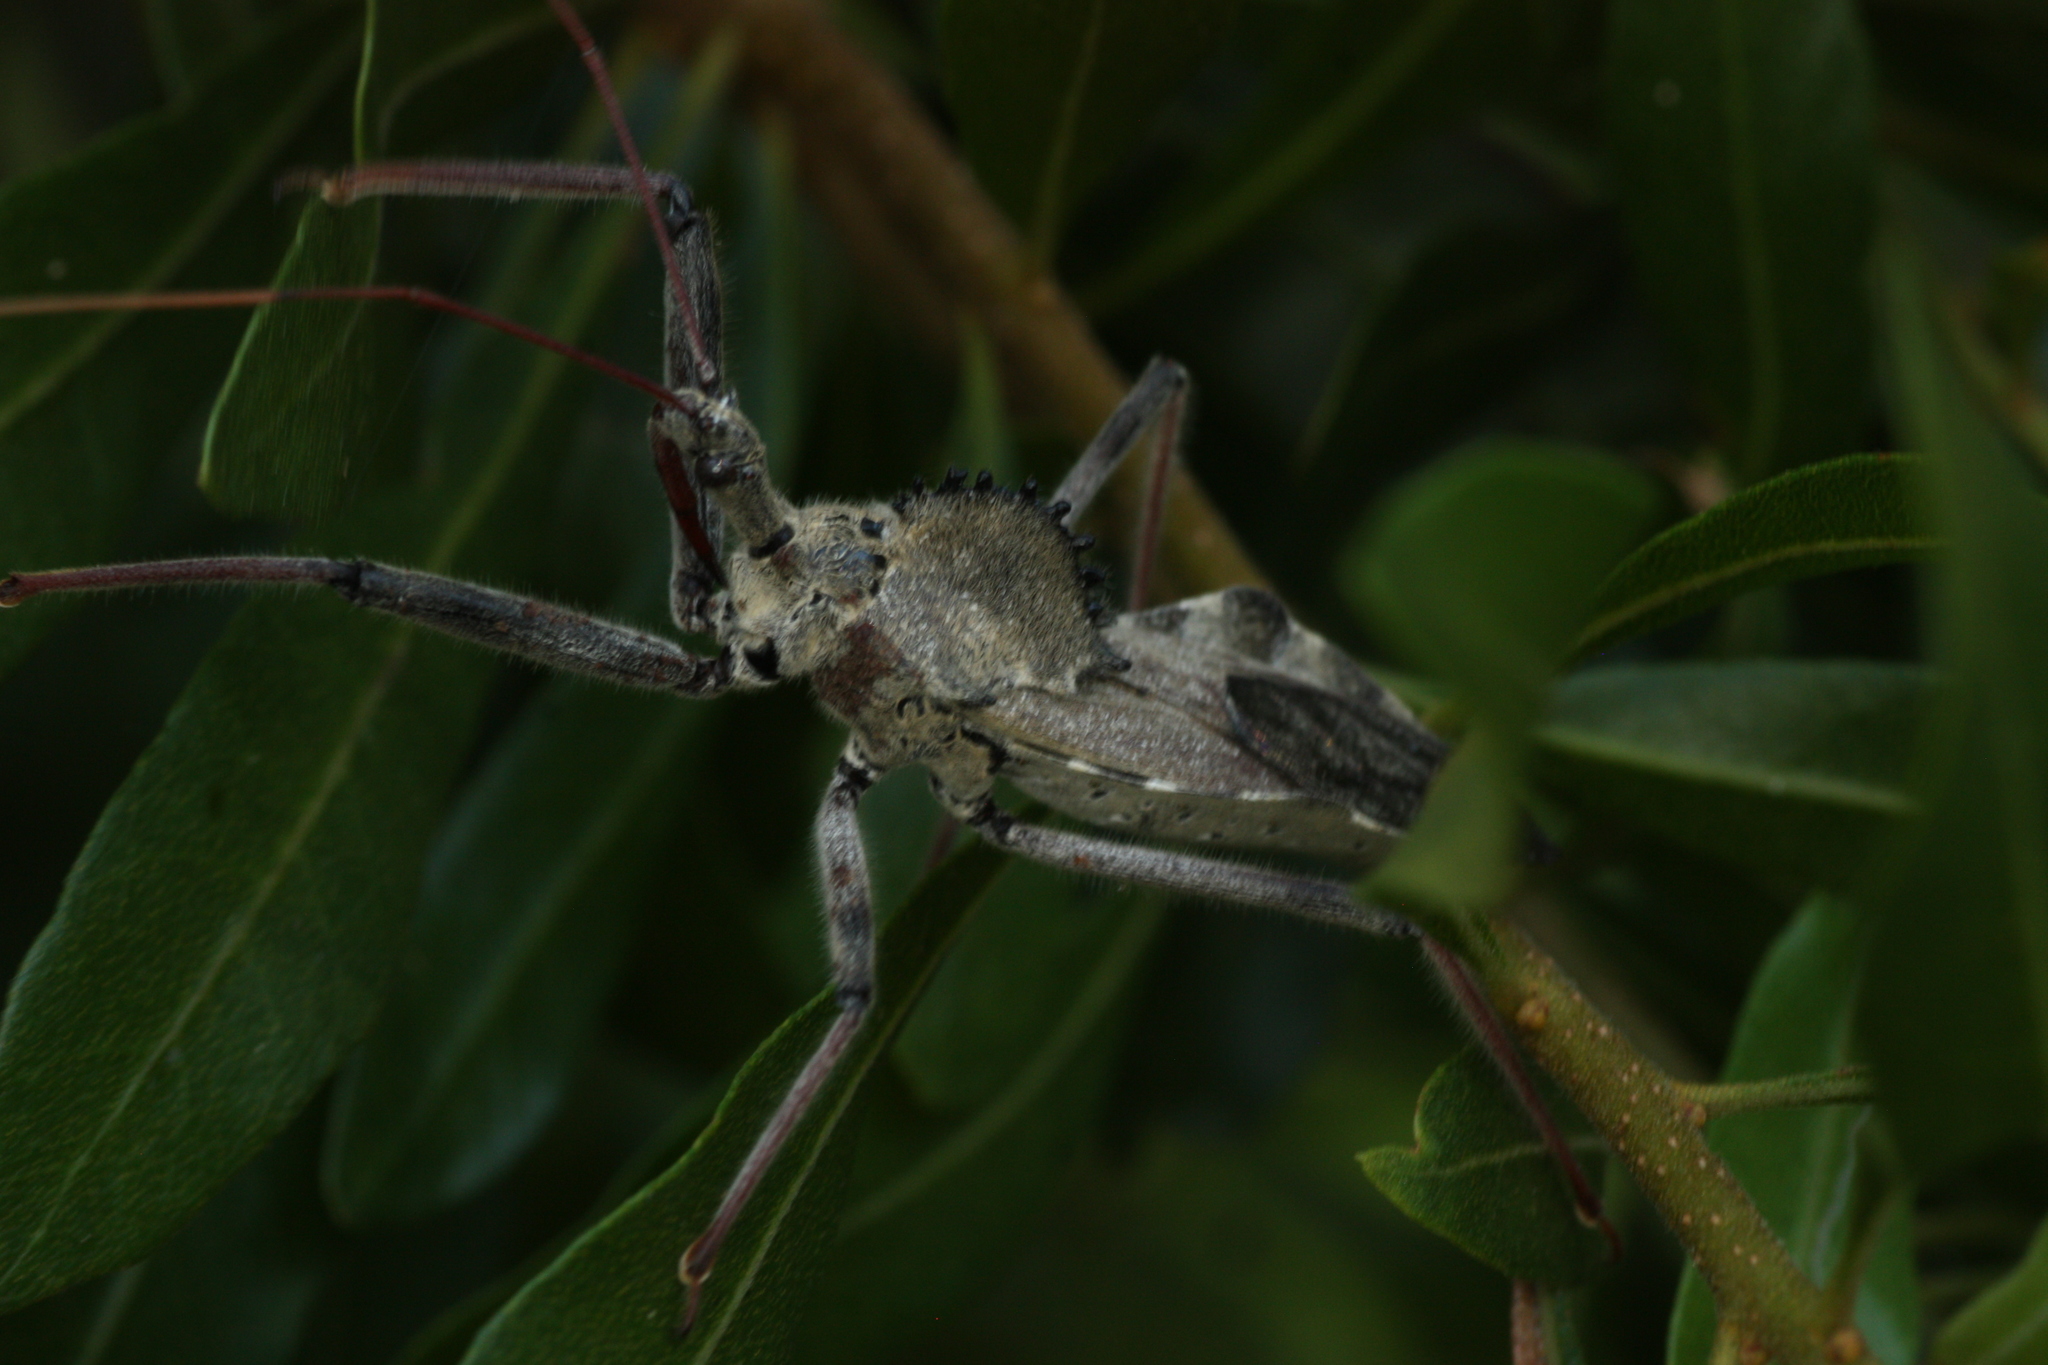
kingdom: Animalia
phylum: Arthropoda
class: Insecta
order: Hemiptera
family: Reduviidae
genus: Arilus
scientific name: Arilus cristatus
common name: North american wheel bug
